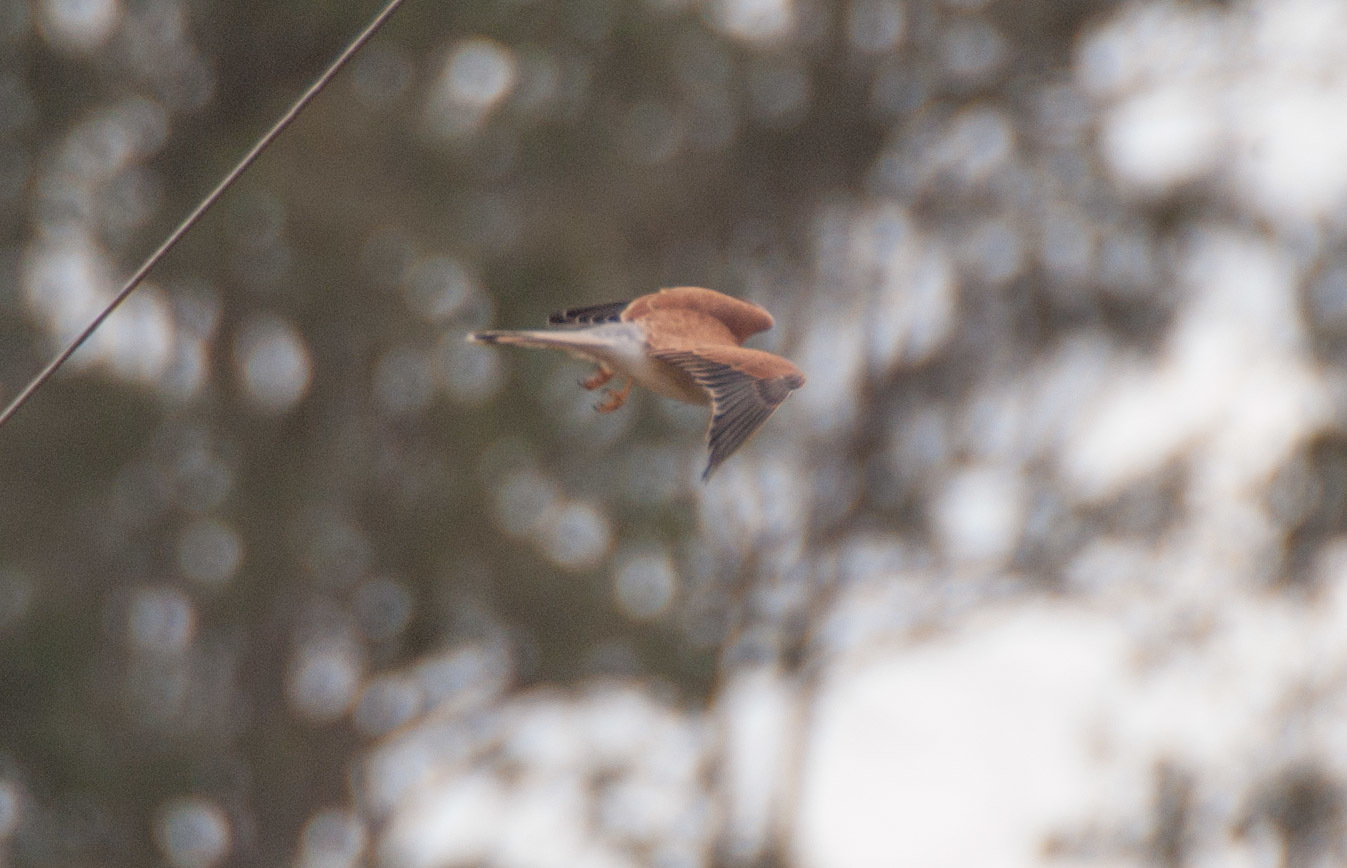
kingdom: Animalia
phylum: Chordata
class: Aves
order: Falconiformes
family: Falconidae
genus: Falco
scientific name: Falco cenchroides
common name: Nankeen kestrel
